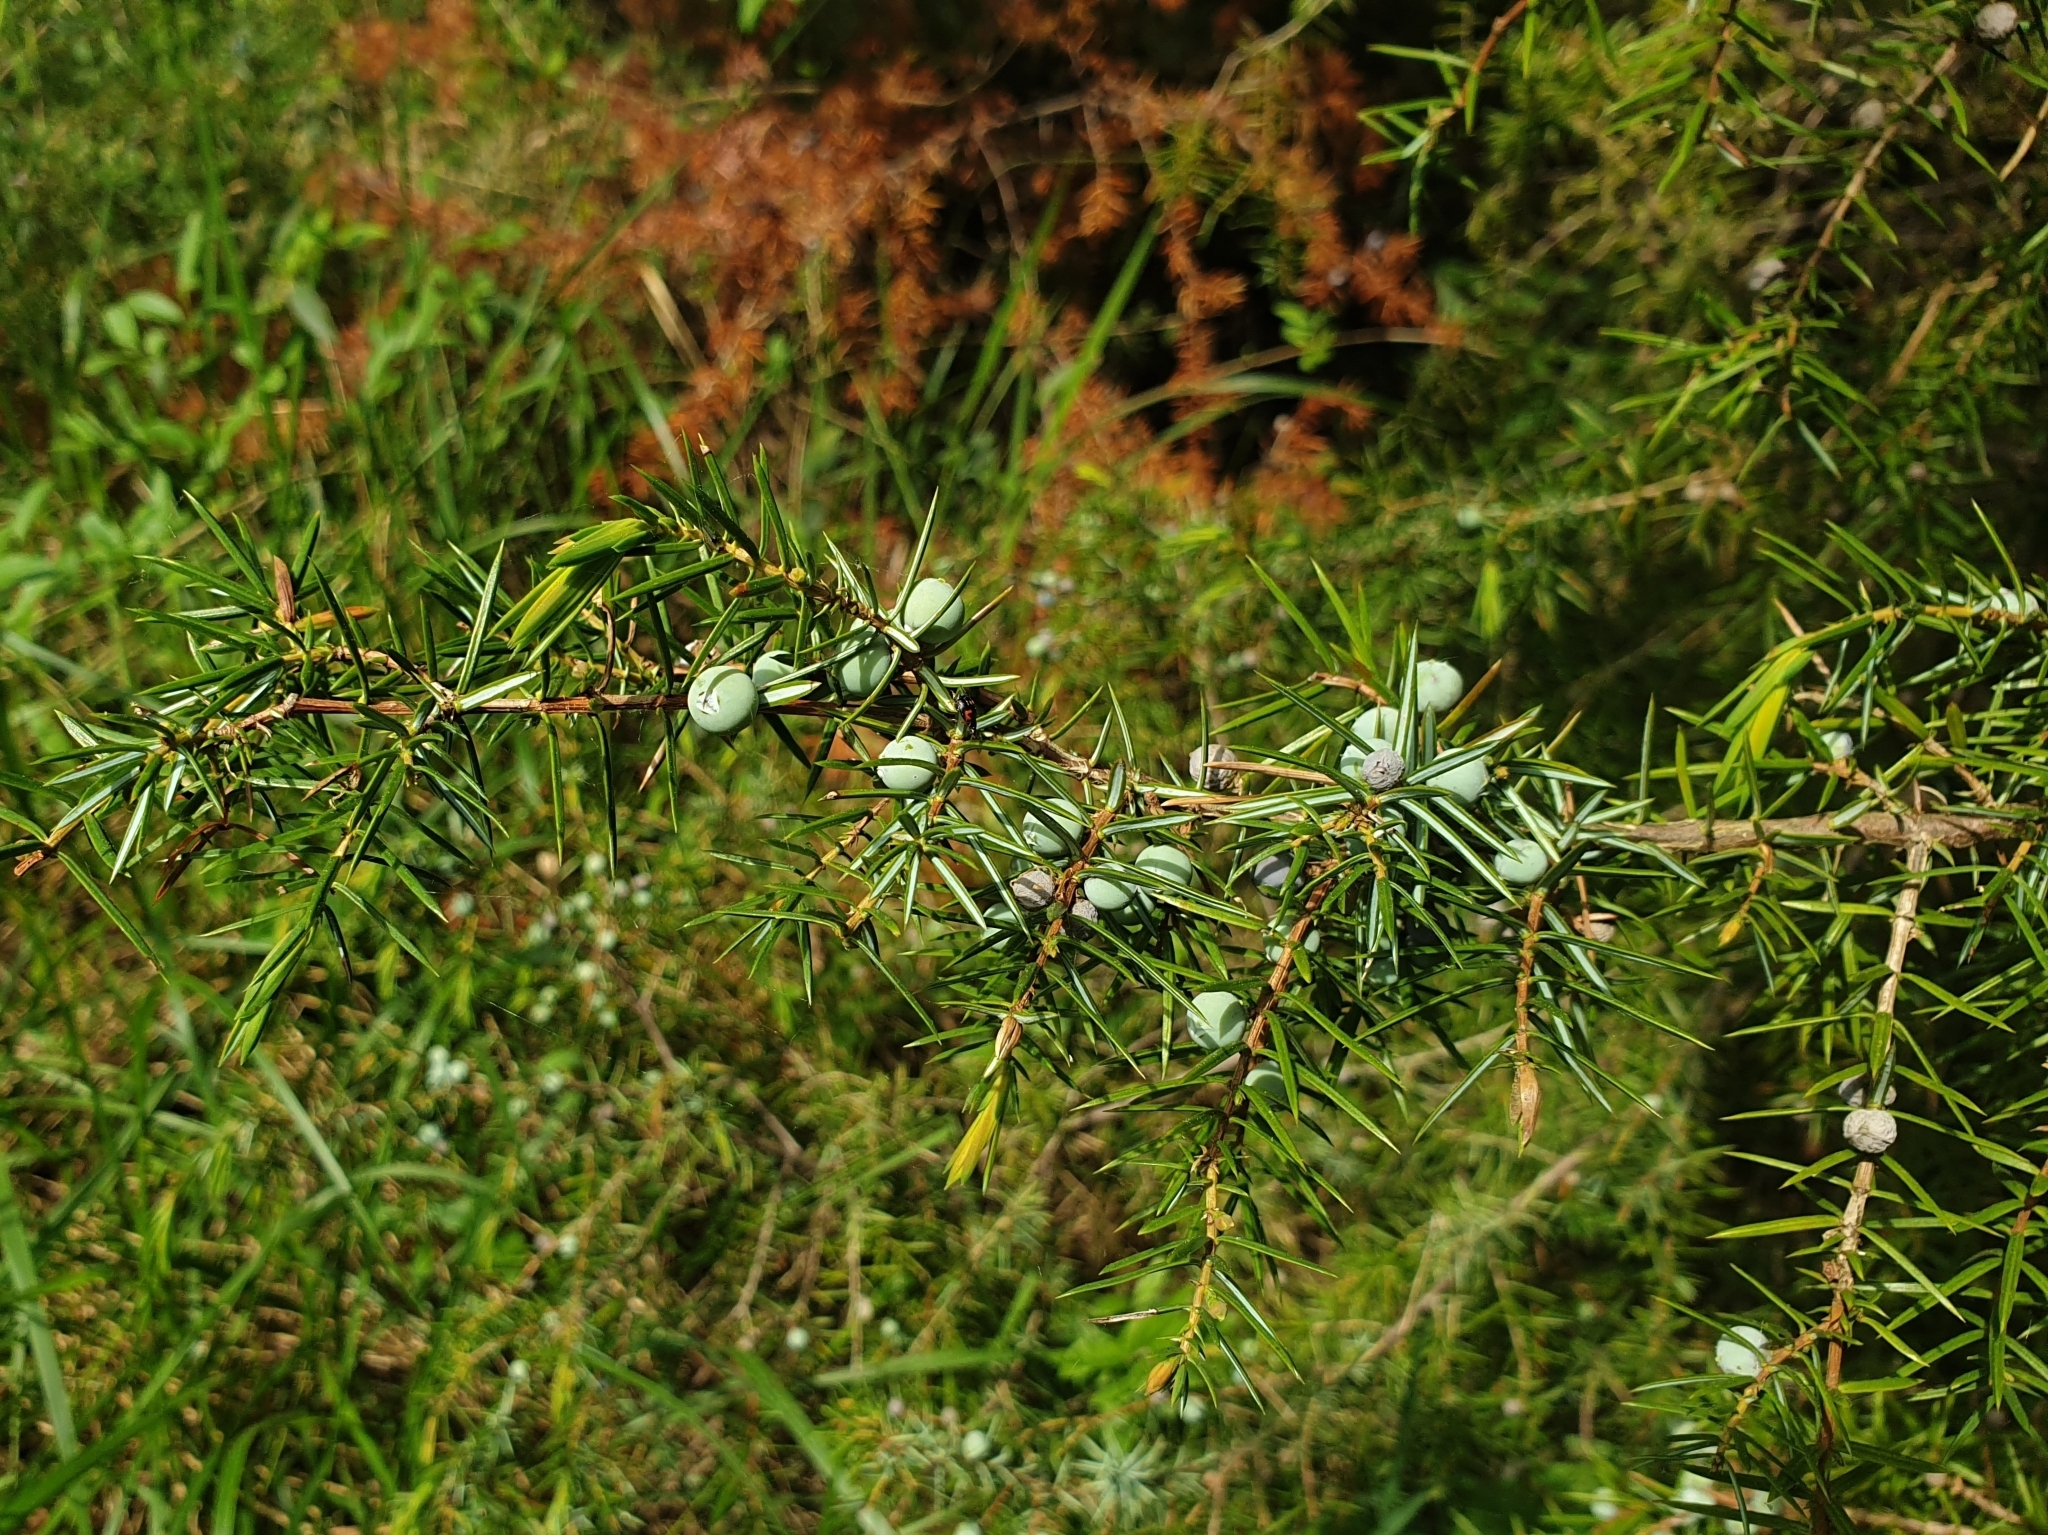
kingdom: Plantae
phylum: Tracheophyta
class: Pinopsida
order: Pinales
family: Cupressaceae
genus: Juniperus
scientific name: Juniperus communis
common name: Common juniper
